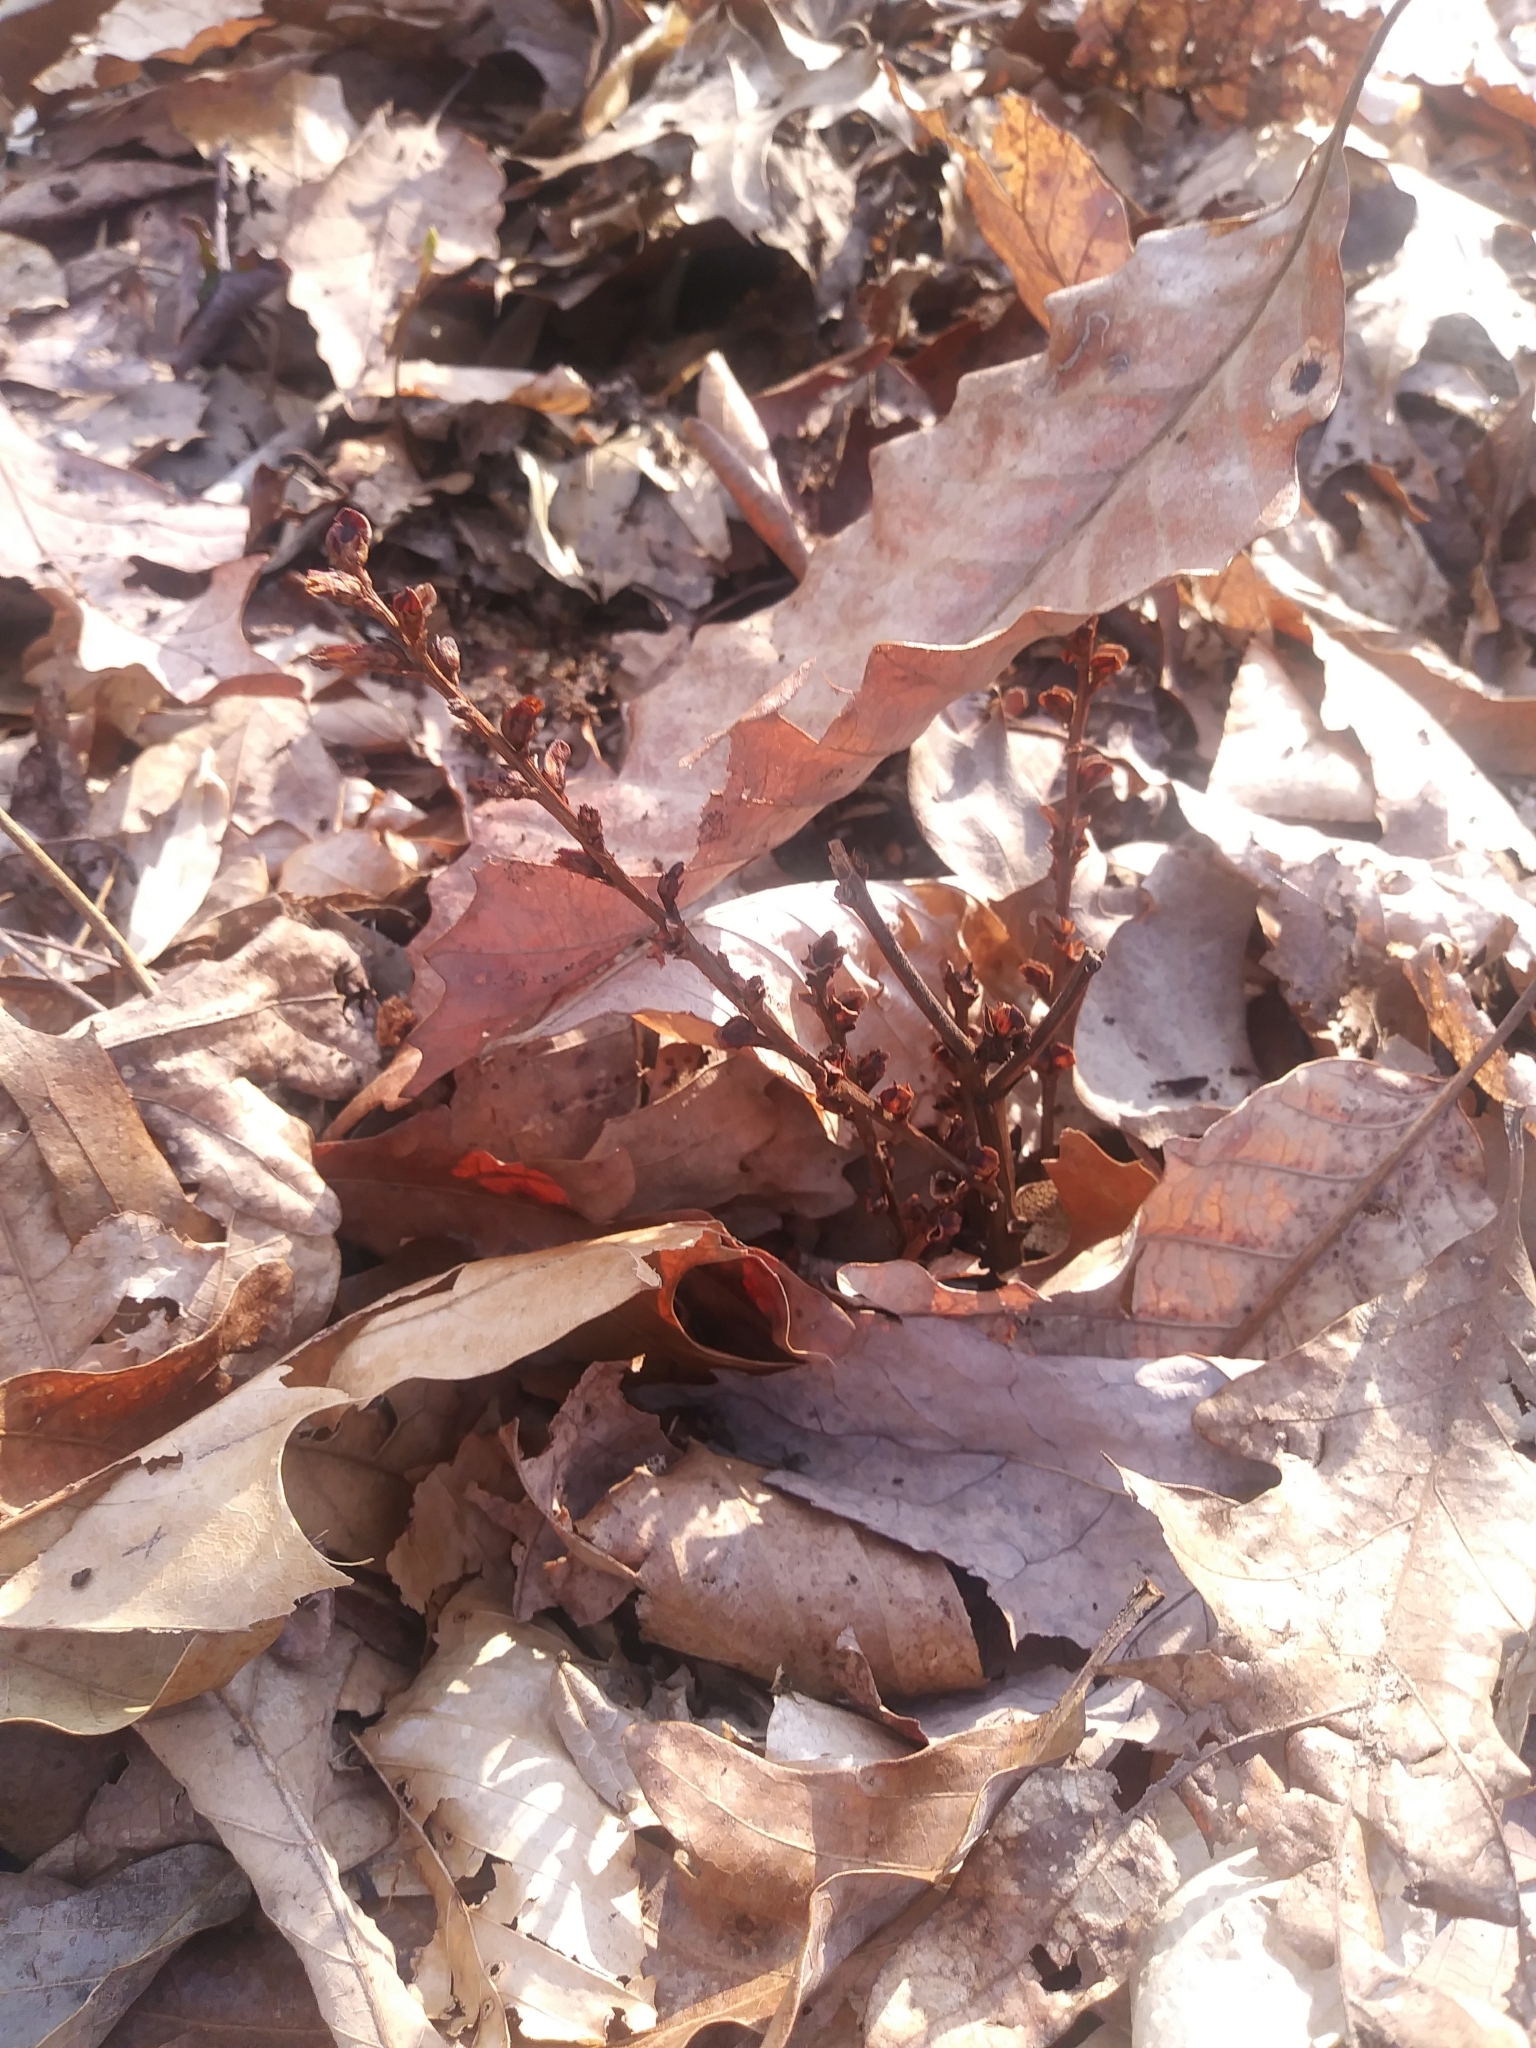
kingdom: Plantae
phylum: Tracheophyta
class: Magnoliopsida
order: Lamiales
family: Orobanchaceae
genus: Epifagus
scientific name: Epifagus virginiana
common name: Beechdrops
